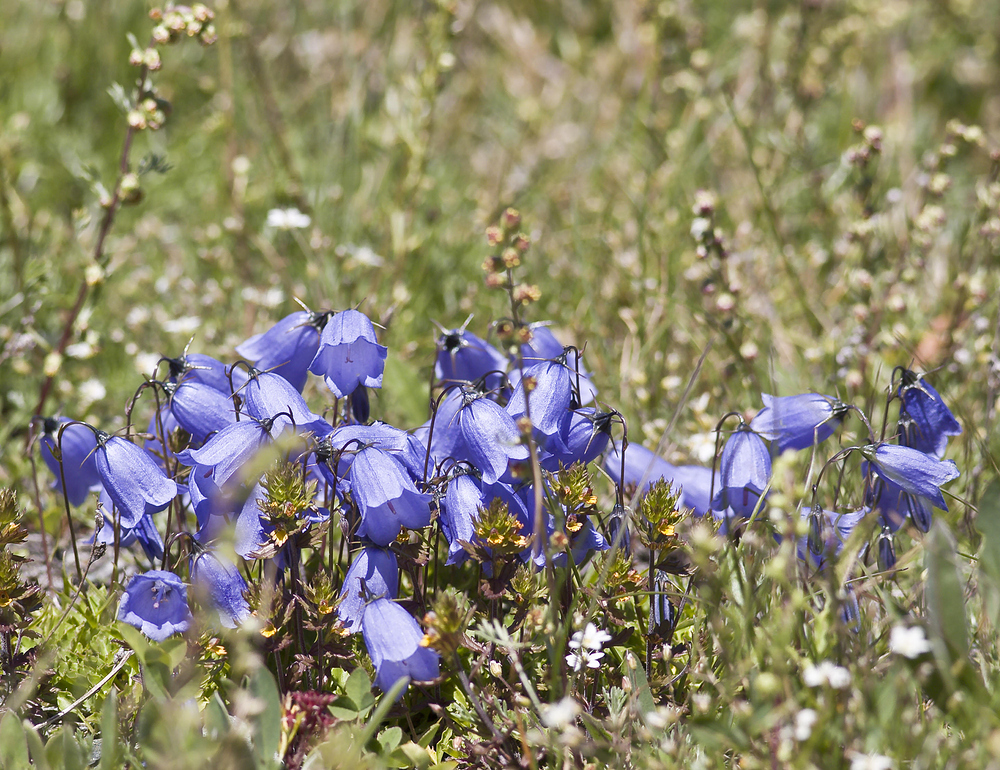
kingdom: Plantae
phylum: Tracheophyta
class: Magnoliopsida
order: Asterales
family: Campanulaceae
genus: Campanula
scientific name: Campanula cochleariifolia
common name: Fairies'-thimbles
